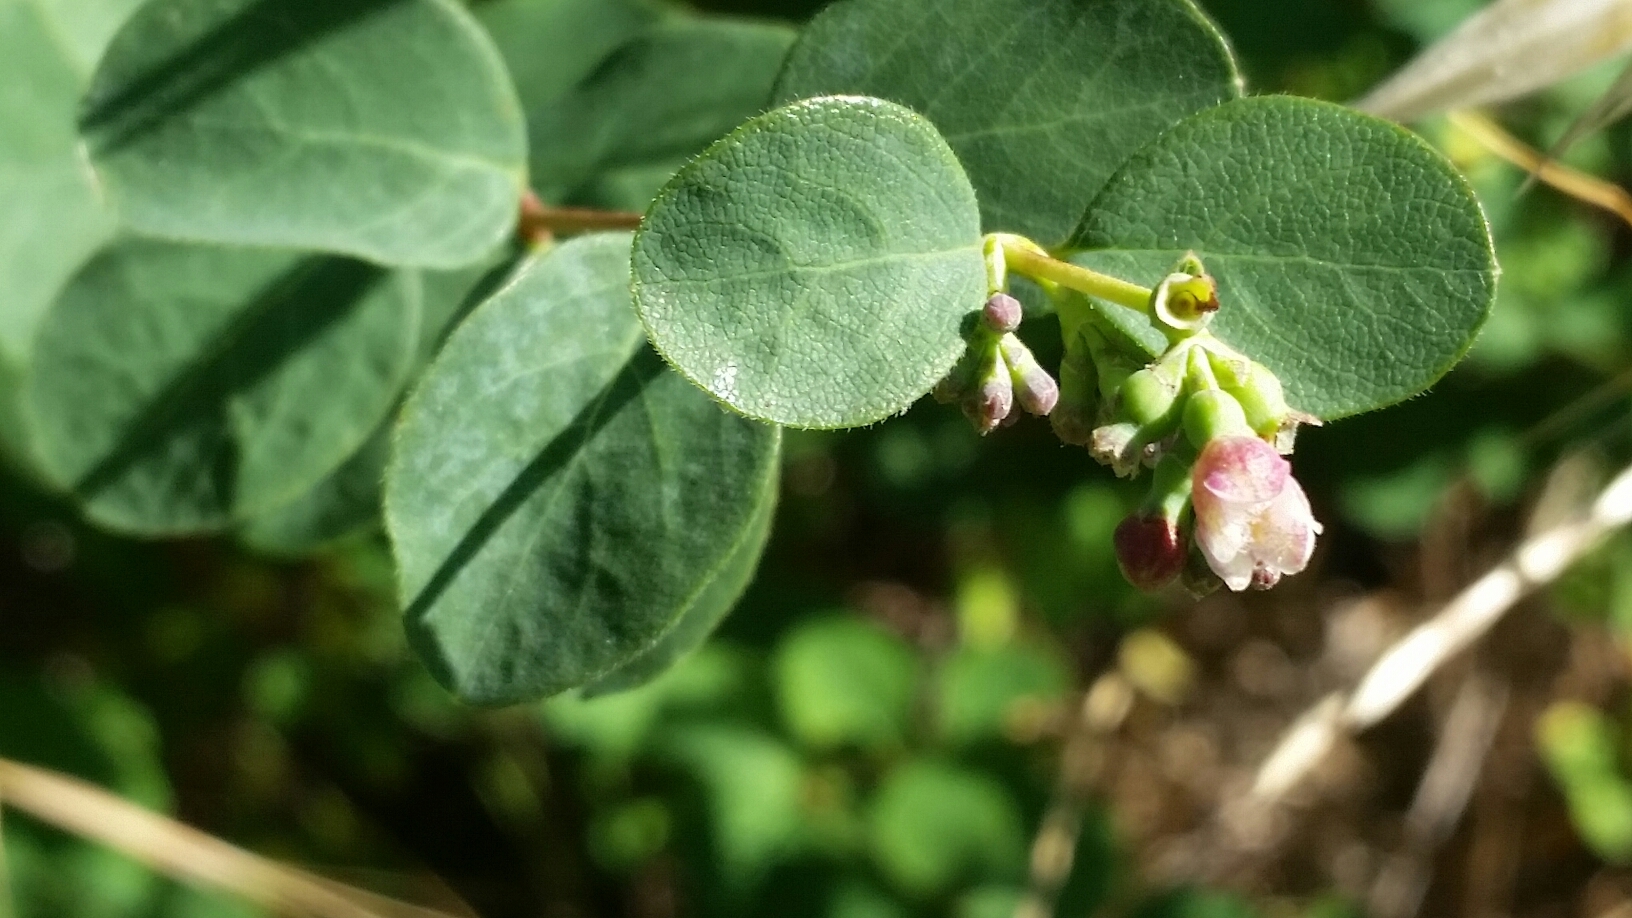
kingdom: Plantae
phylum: Tracheophyta
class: Magnoliopsida
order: Dipsacales
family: Caprifoliaceae
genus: Symphoricarpos
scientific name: Symphoricarpos albus
